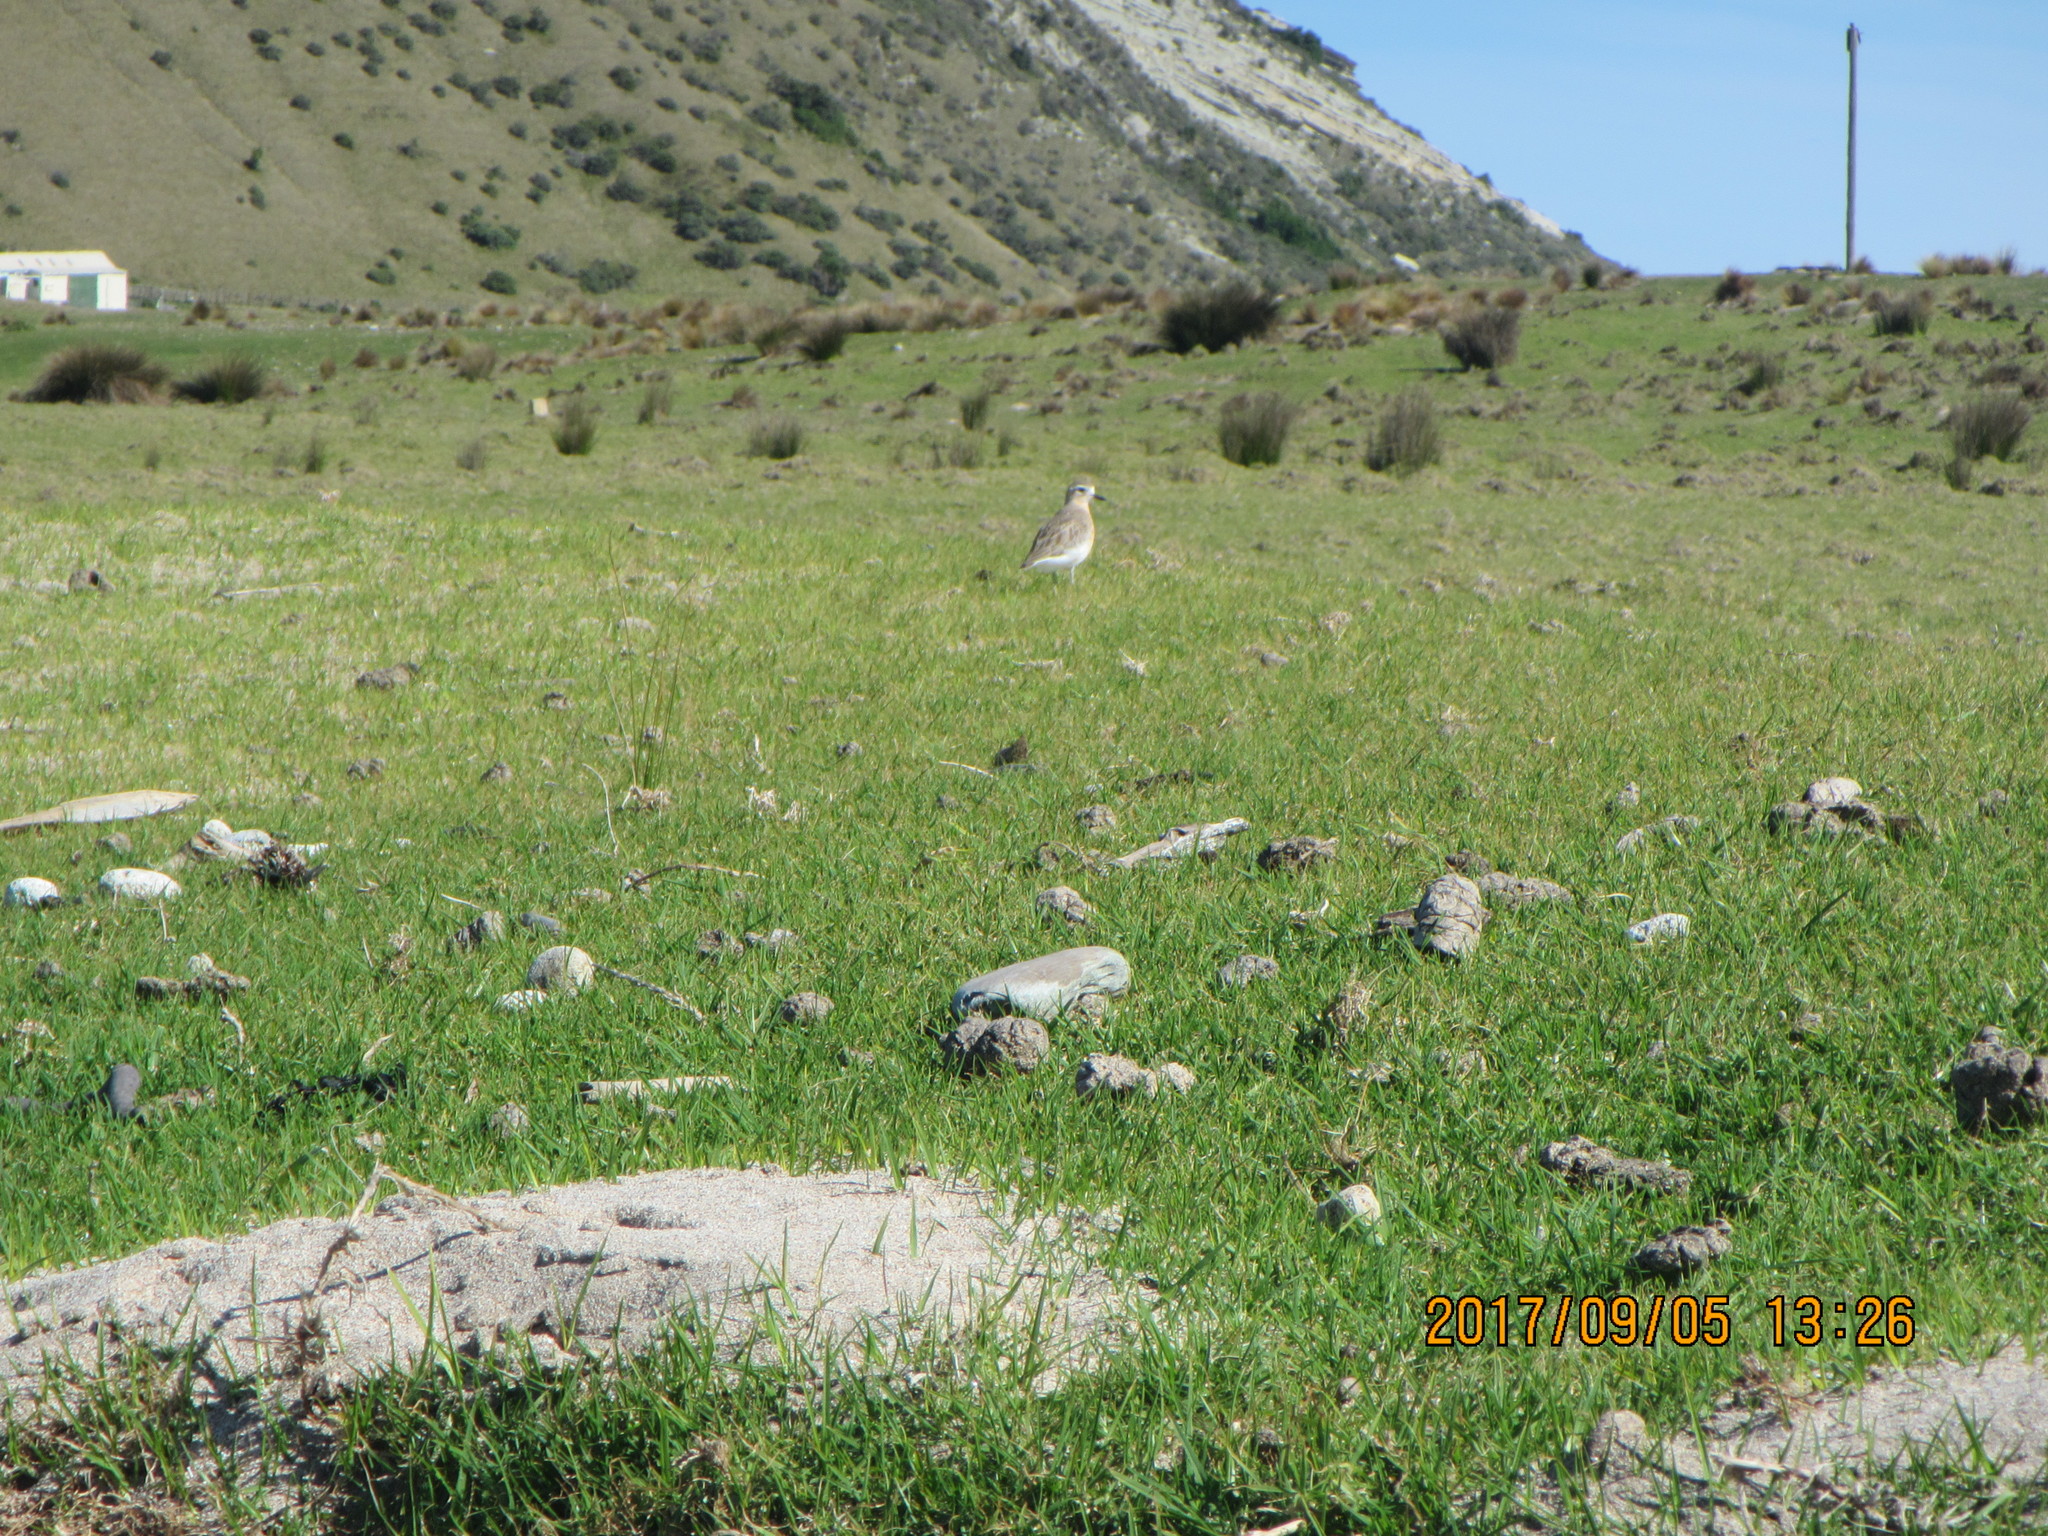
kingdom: Animalia
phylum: Chordata
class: Aves
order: Charadriiformes
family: Charadriidae
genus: Anarhynchus
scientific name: Anarhynchus
